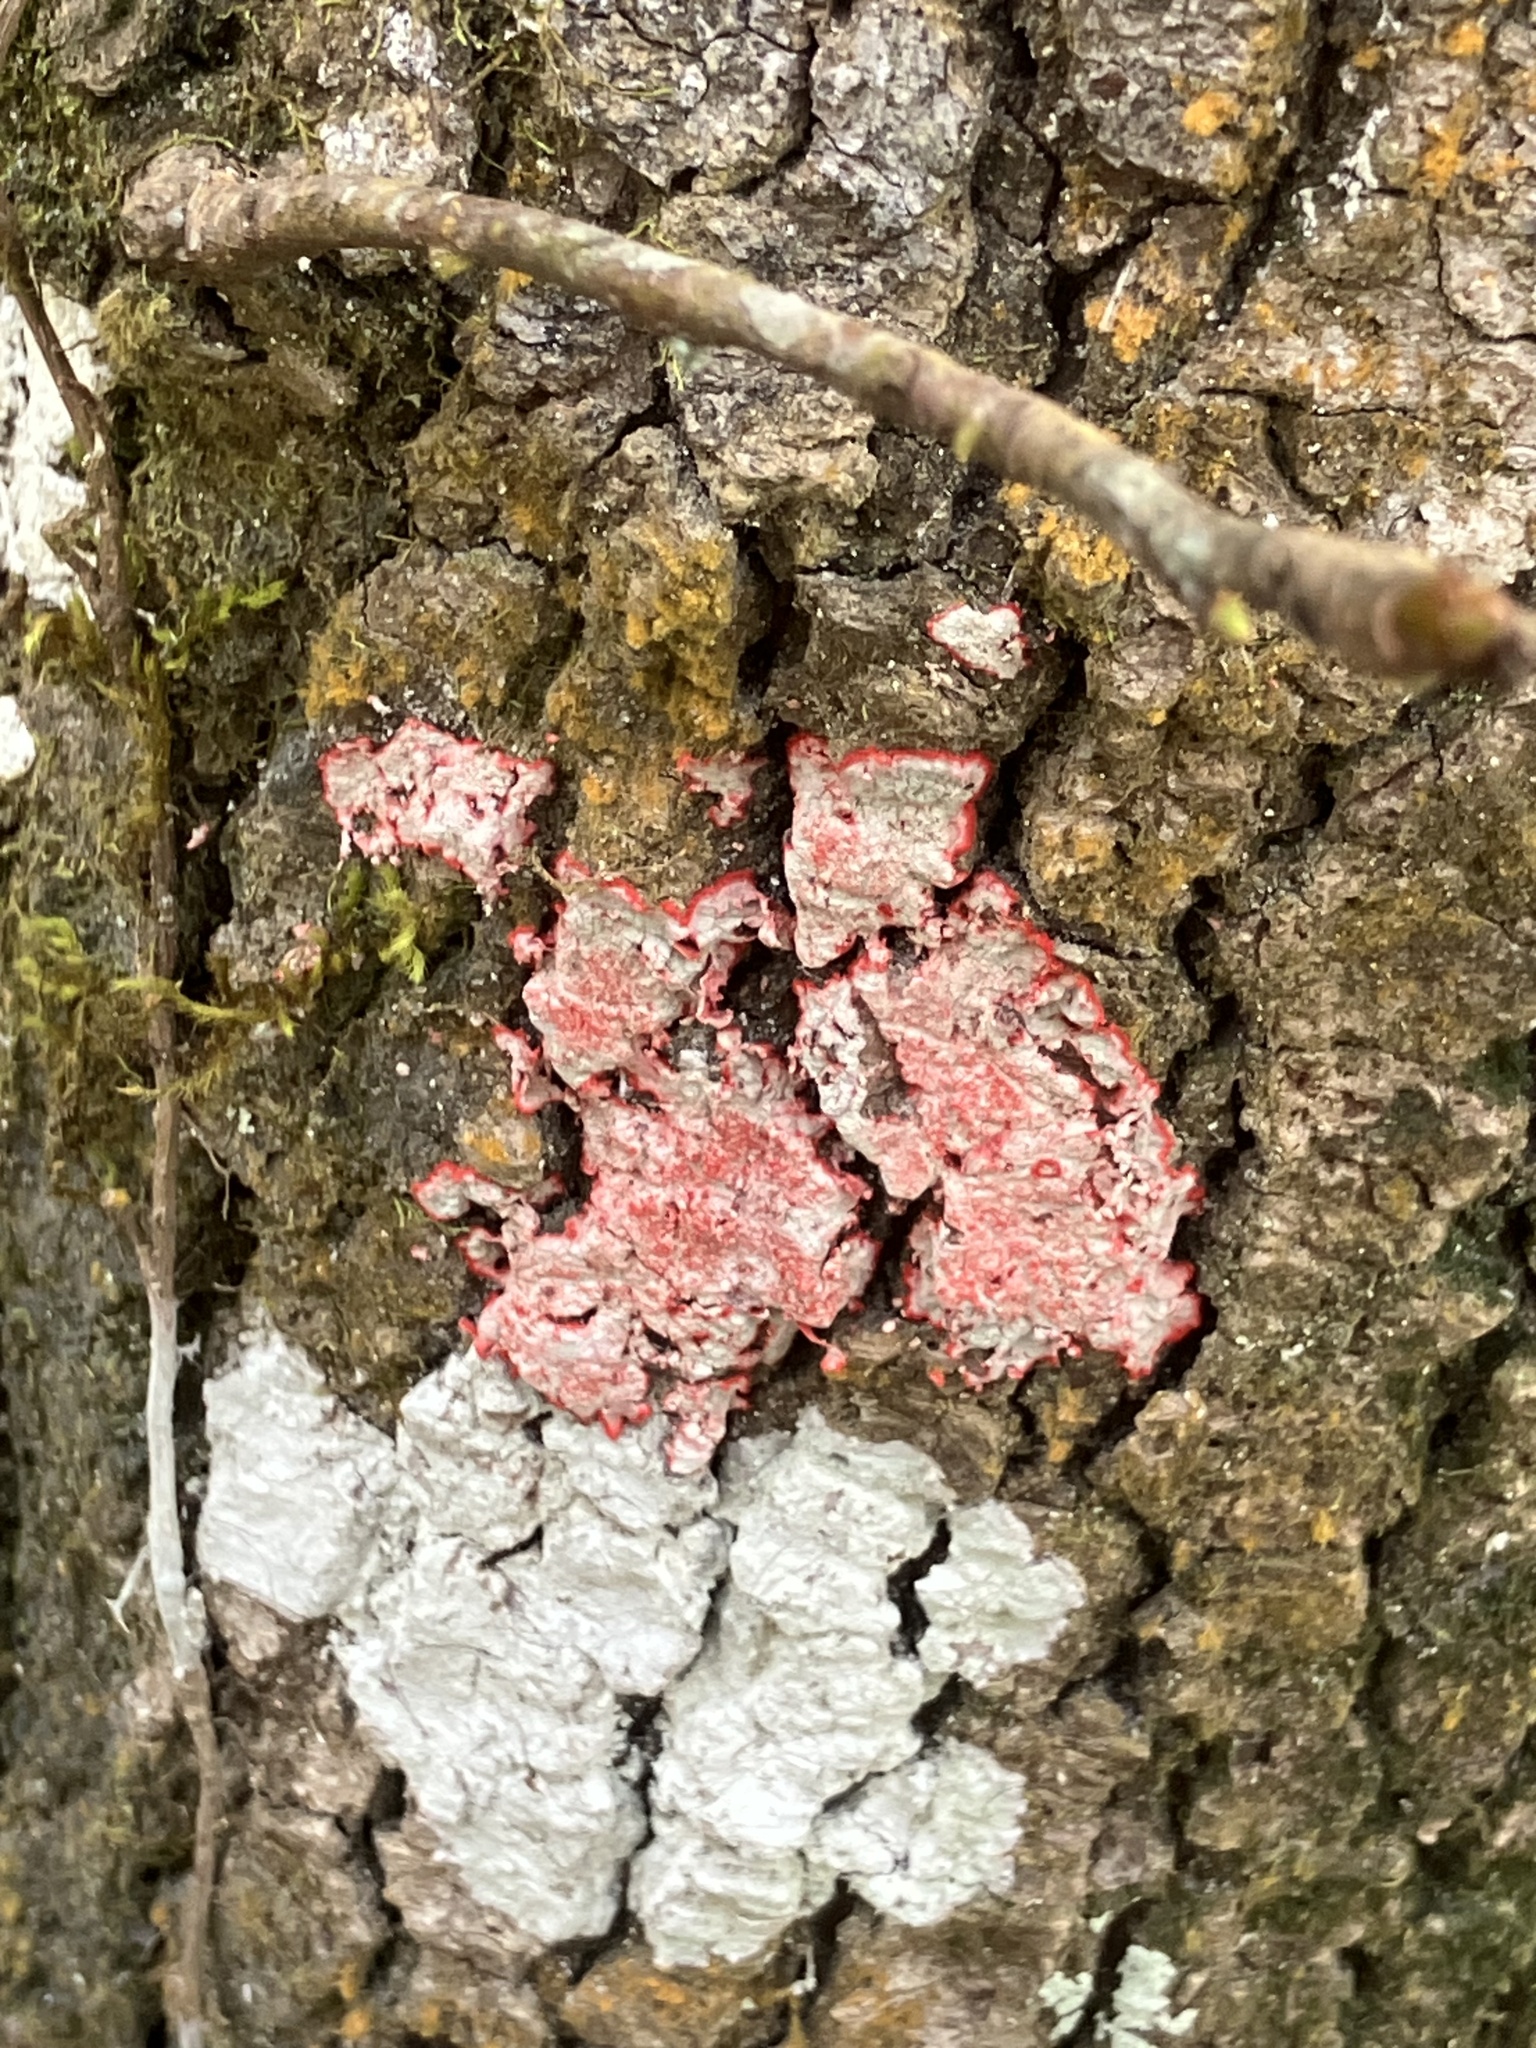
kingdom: Fungi
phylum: Ascomycota
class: Arthoniomycetes
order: Arthoniales
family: Arthoniaceae
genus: Herpothallon
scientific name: Herpothallon rubrocinctum
